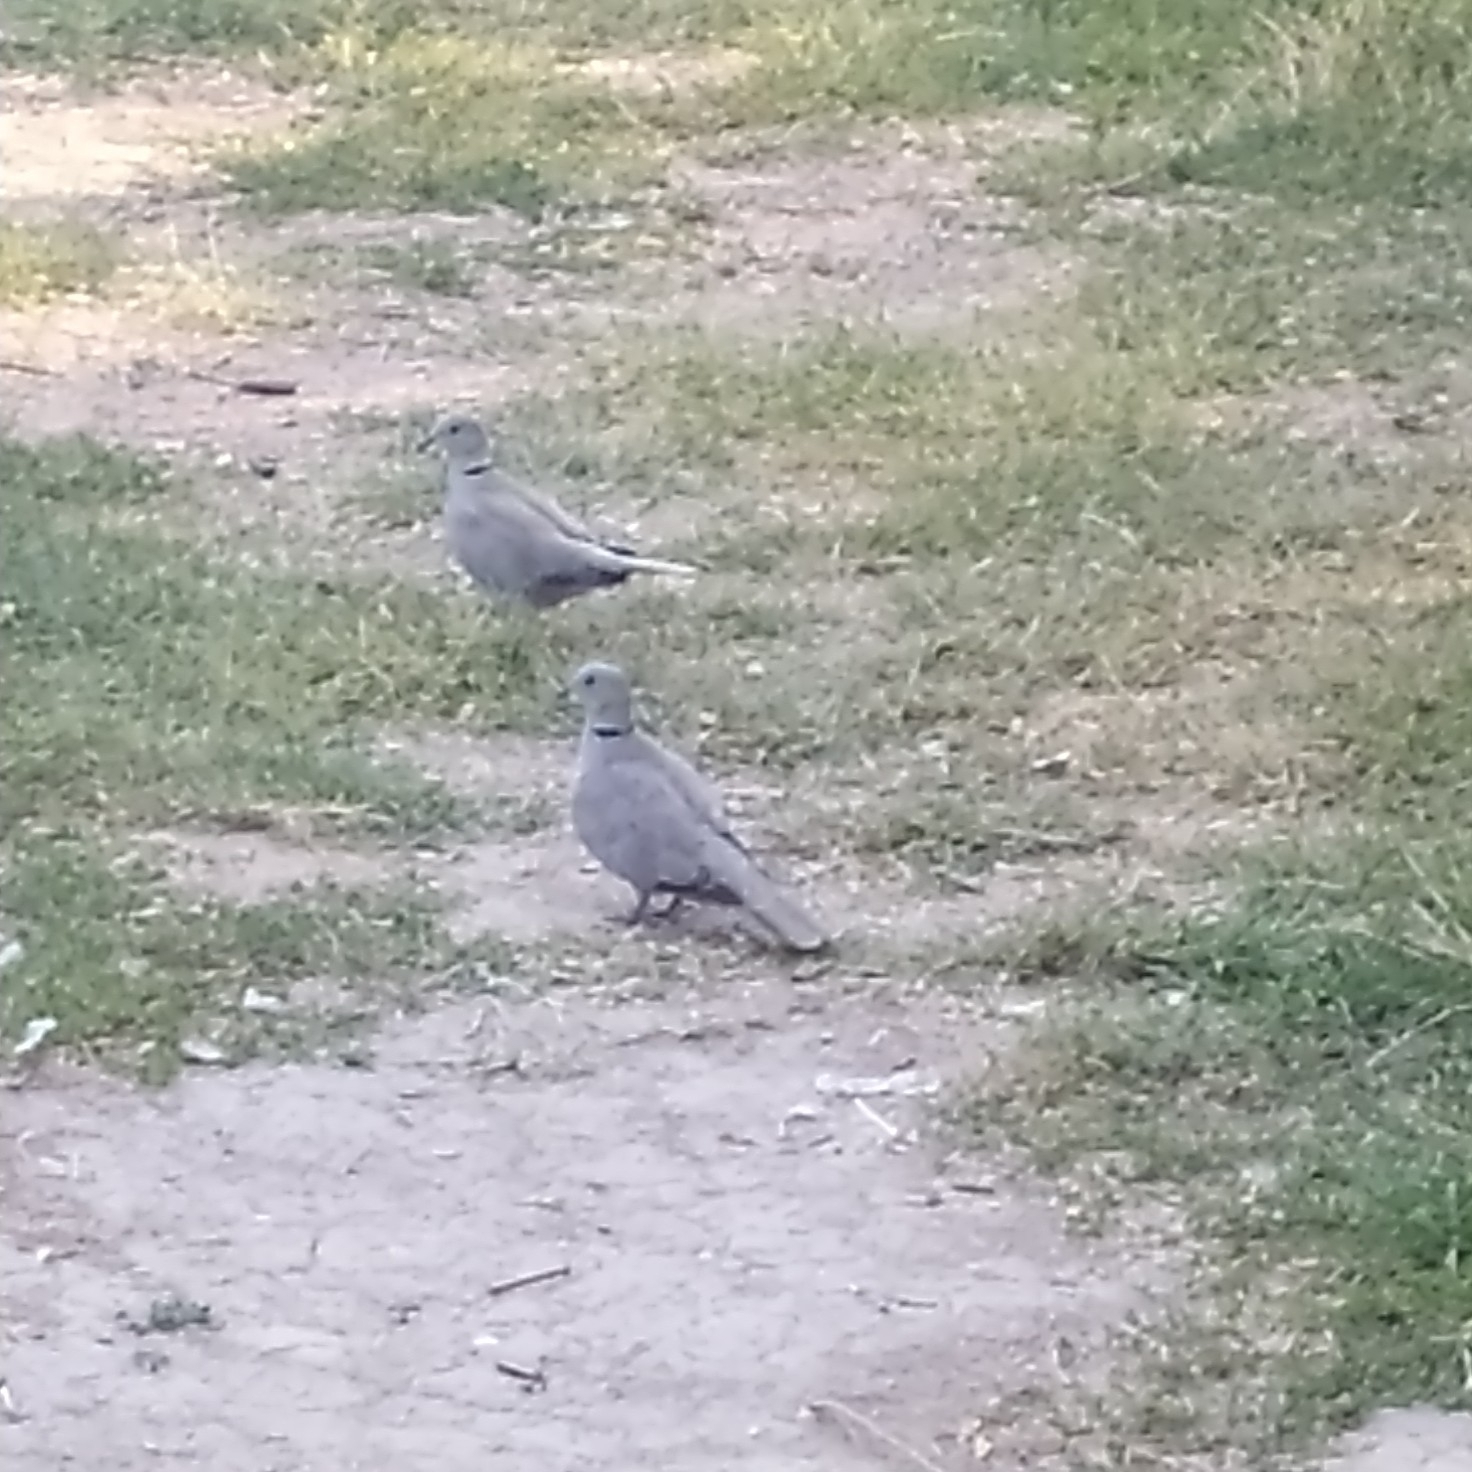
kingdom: Animalia
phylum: Chordata
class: Aves
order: Columbiformes
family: Columbidae
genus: Streptopelia
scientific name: Streptopelia decaocto
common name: Eurasian collared dove
